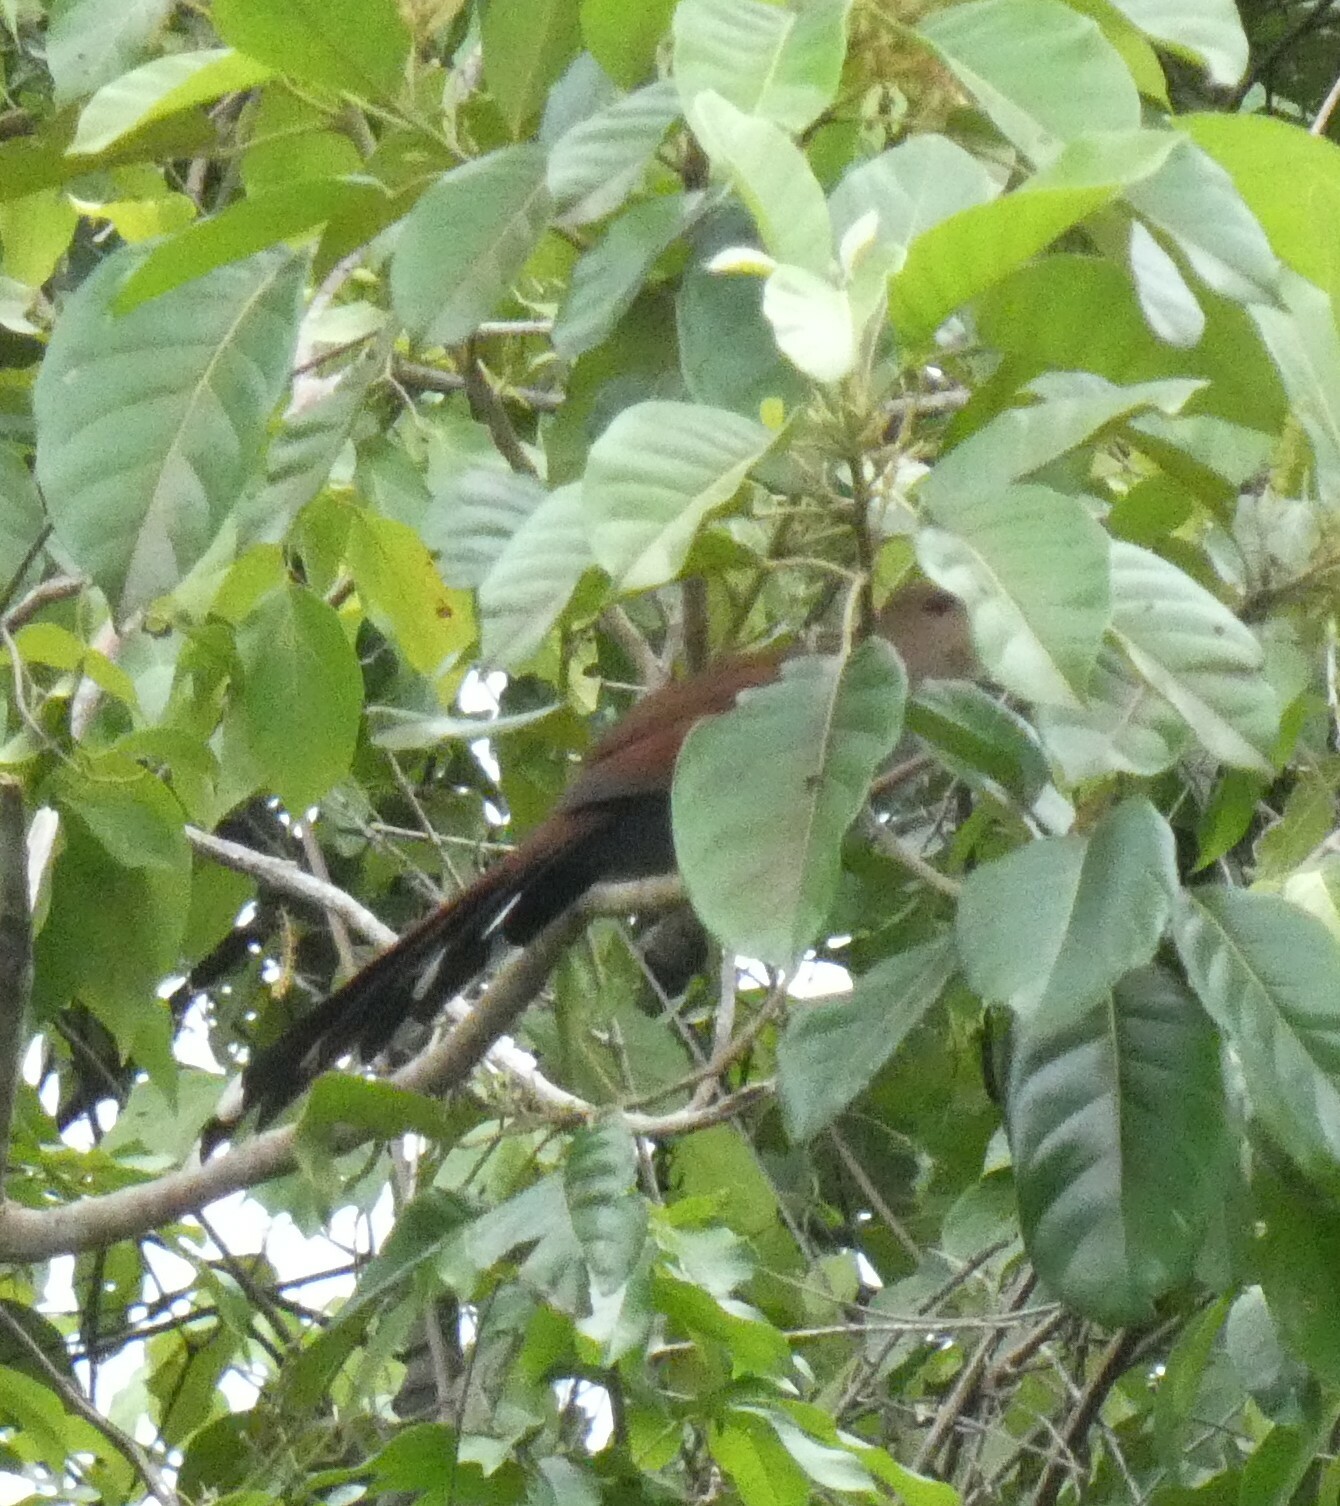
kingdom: Animalia
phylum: Chordata
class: Aves
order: Cuculiformes
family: Cuculidae
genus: Piaya
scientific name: Piaya cayana
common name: Squirrel cuckoo
